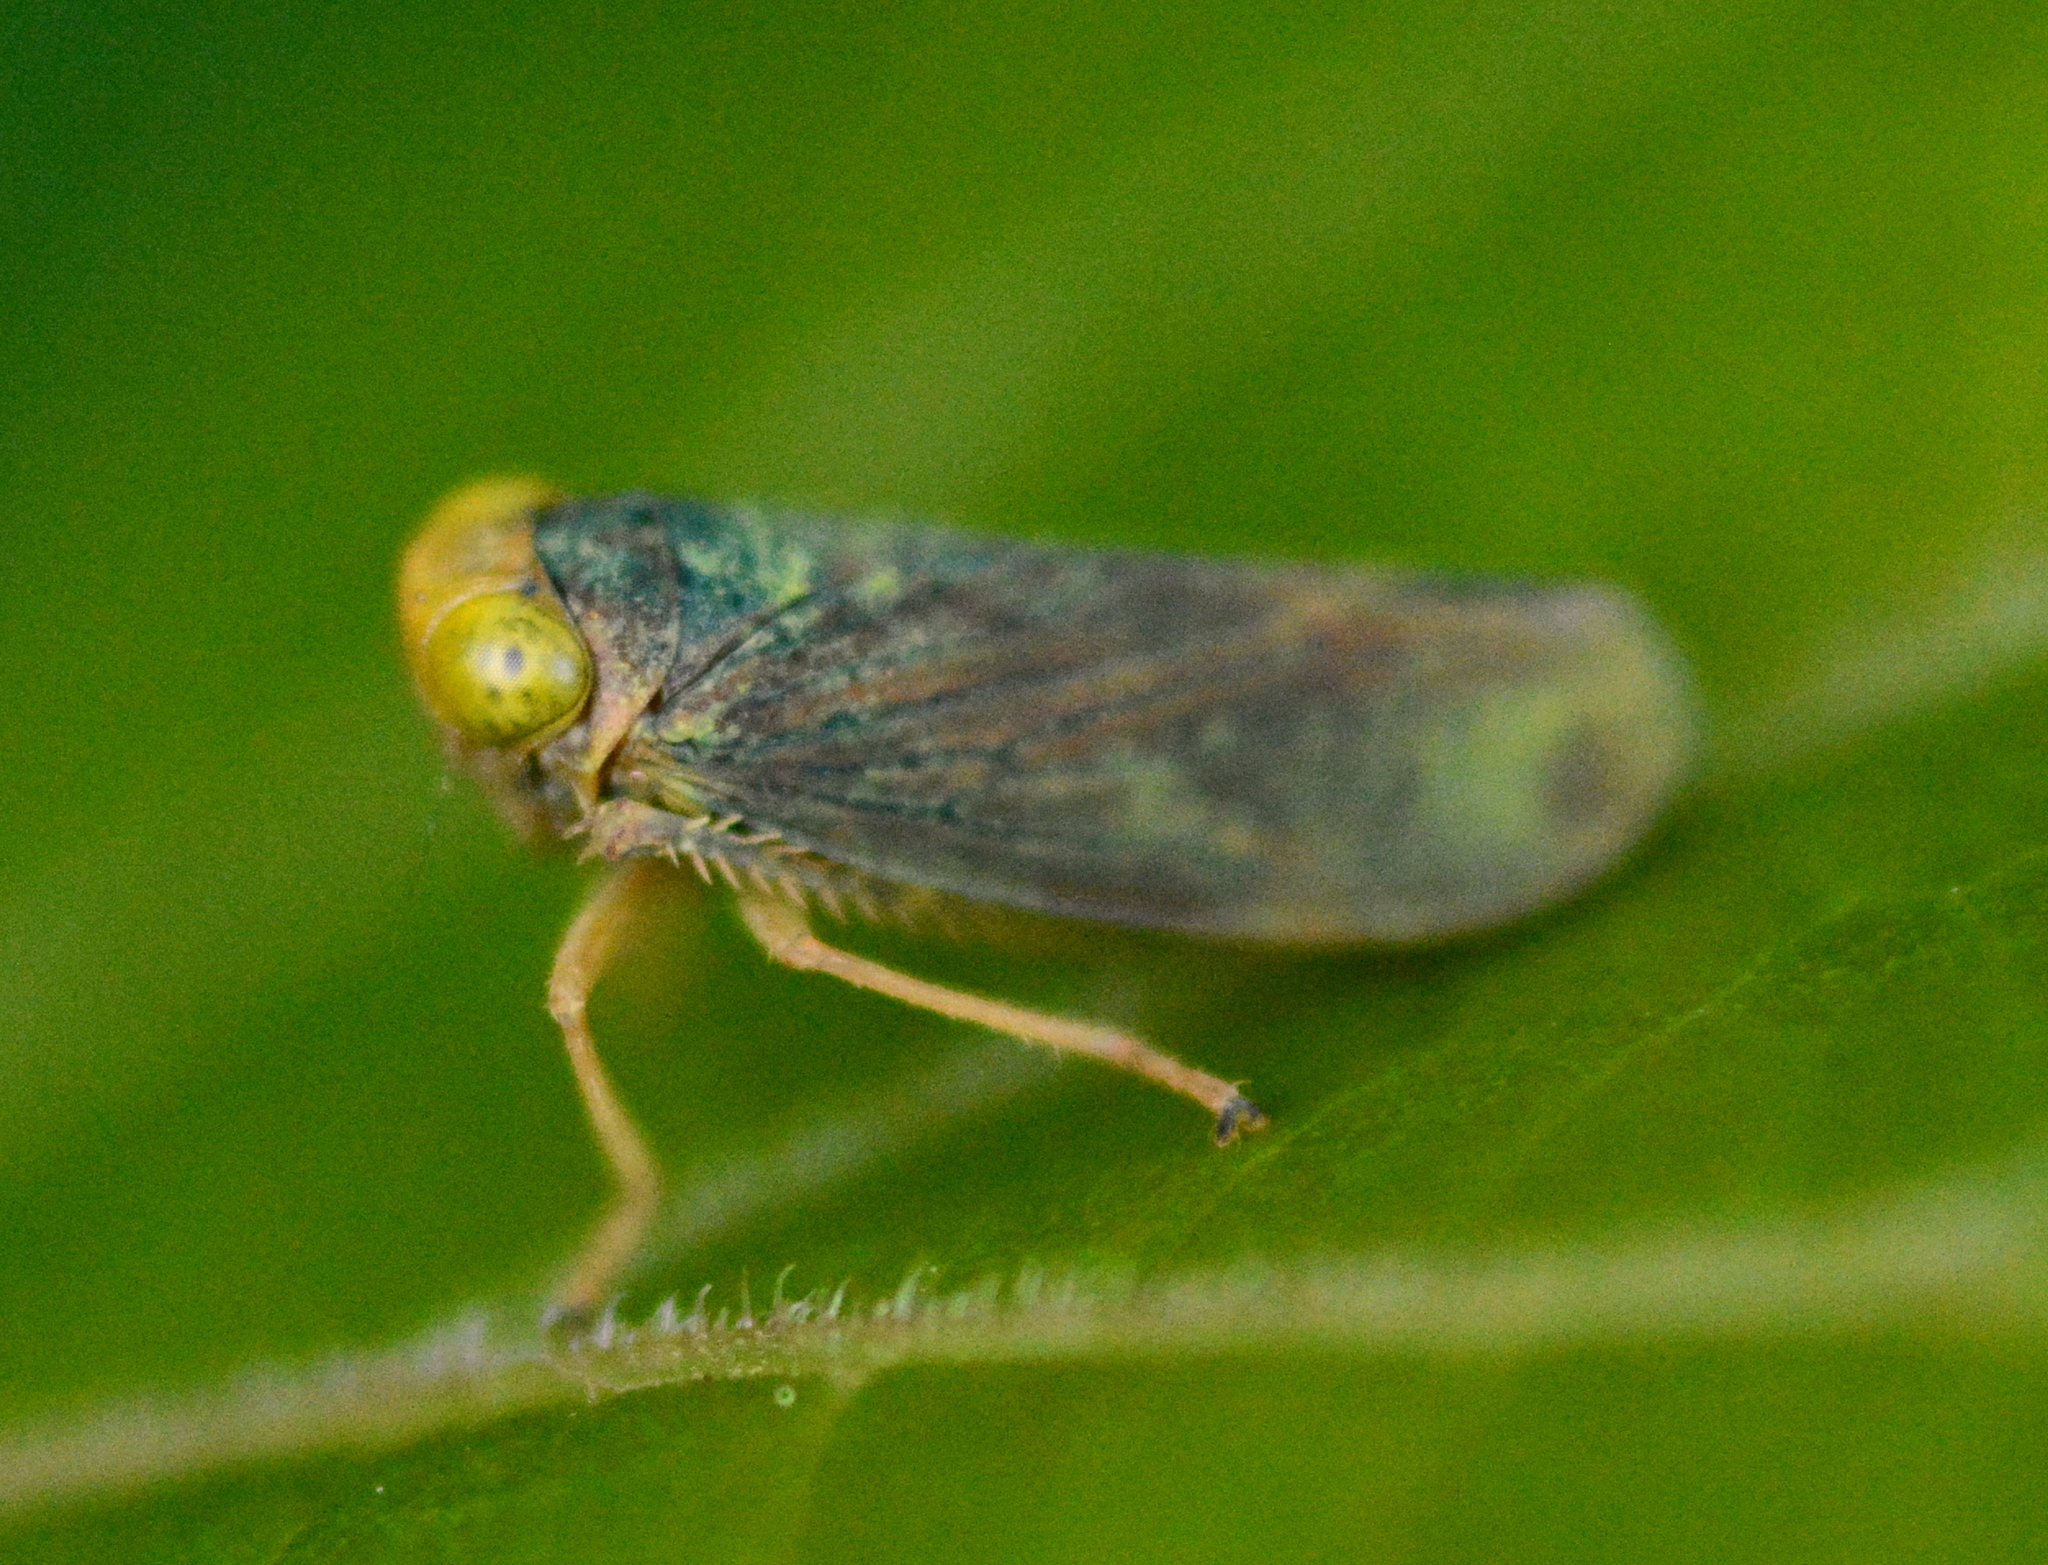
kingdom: Animalia
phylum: Arthropoda
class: Insecta
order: Hemiptera
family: Cicadellidae
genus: Jikradia
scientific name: Jikradia olitoria
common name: Coppery leafhopper
